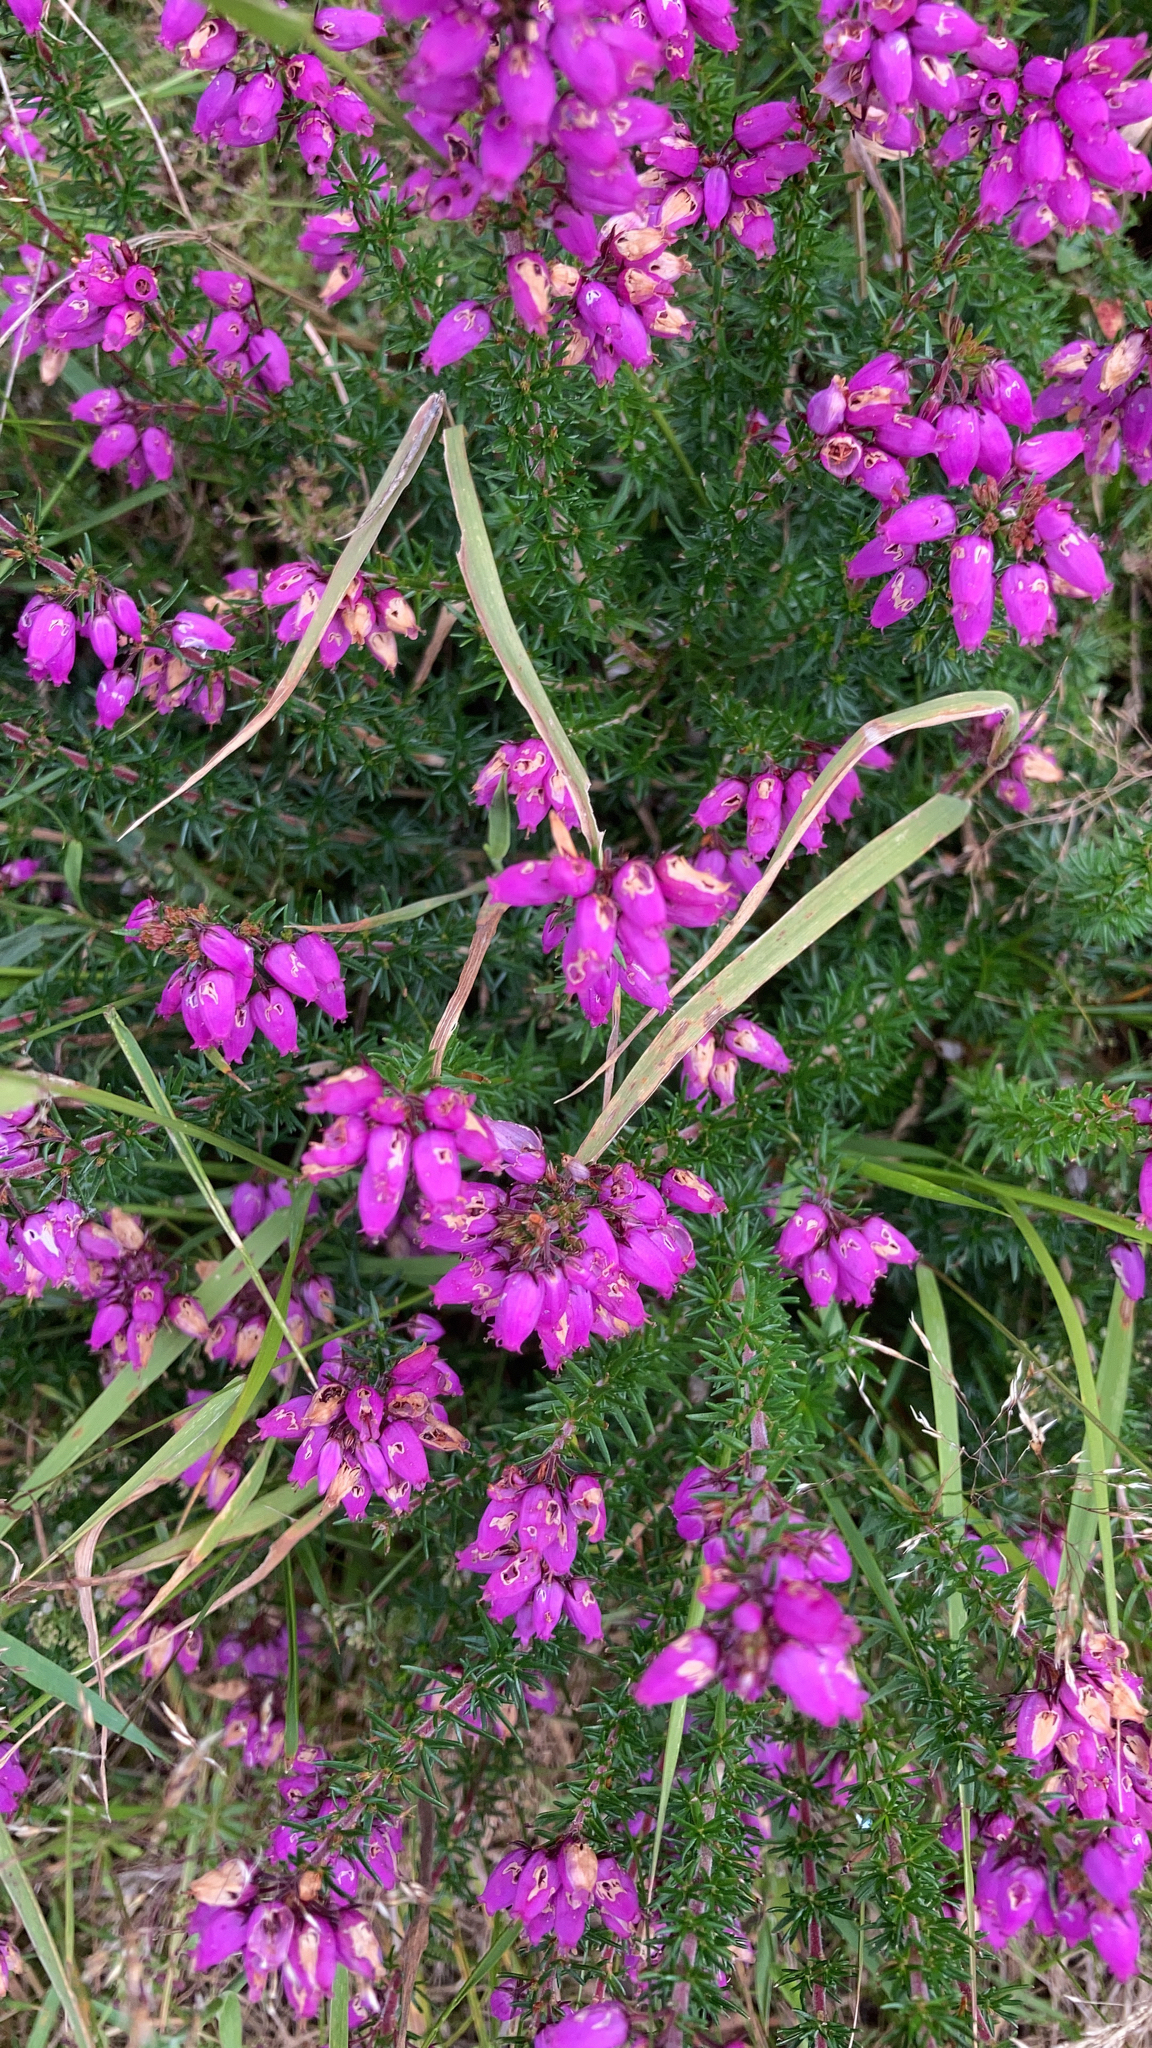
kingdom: Plantae
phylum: Tracheophyta
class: Magnoliopsida
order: Ericales
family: Ericaceae
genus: Erica
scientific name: Erica cinerea
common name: Bell heather
